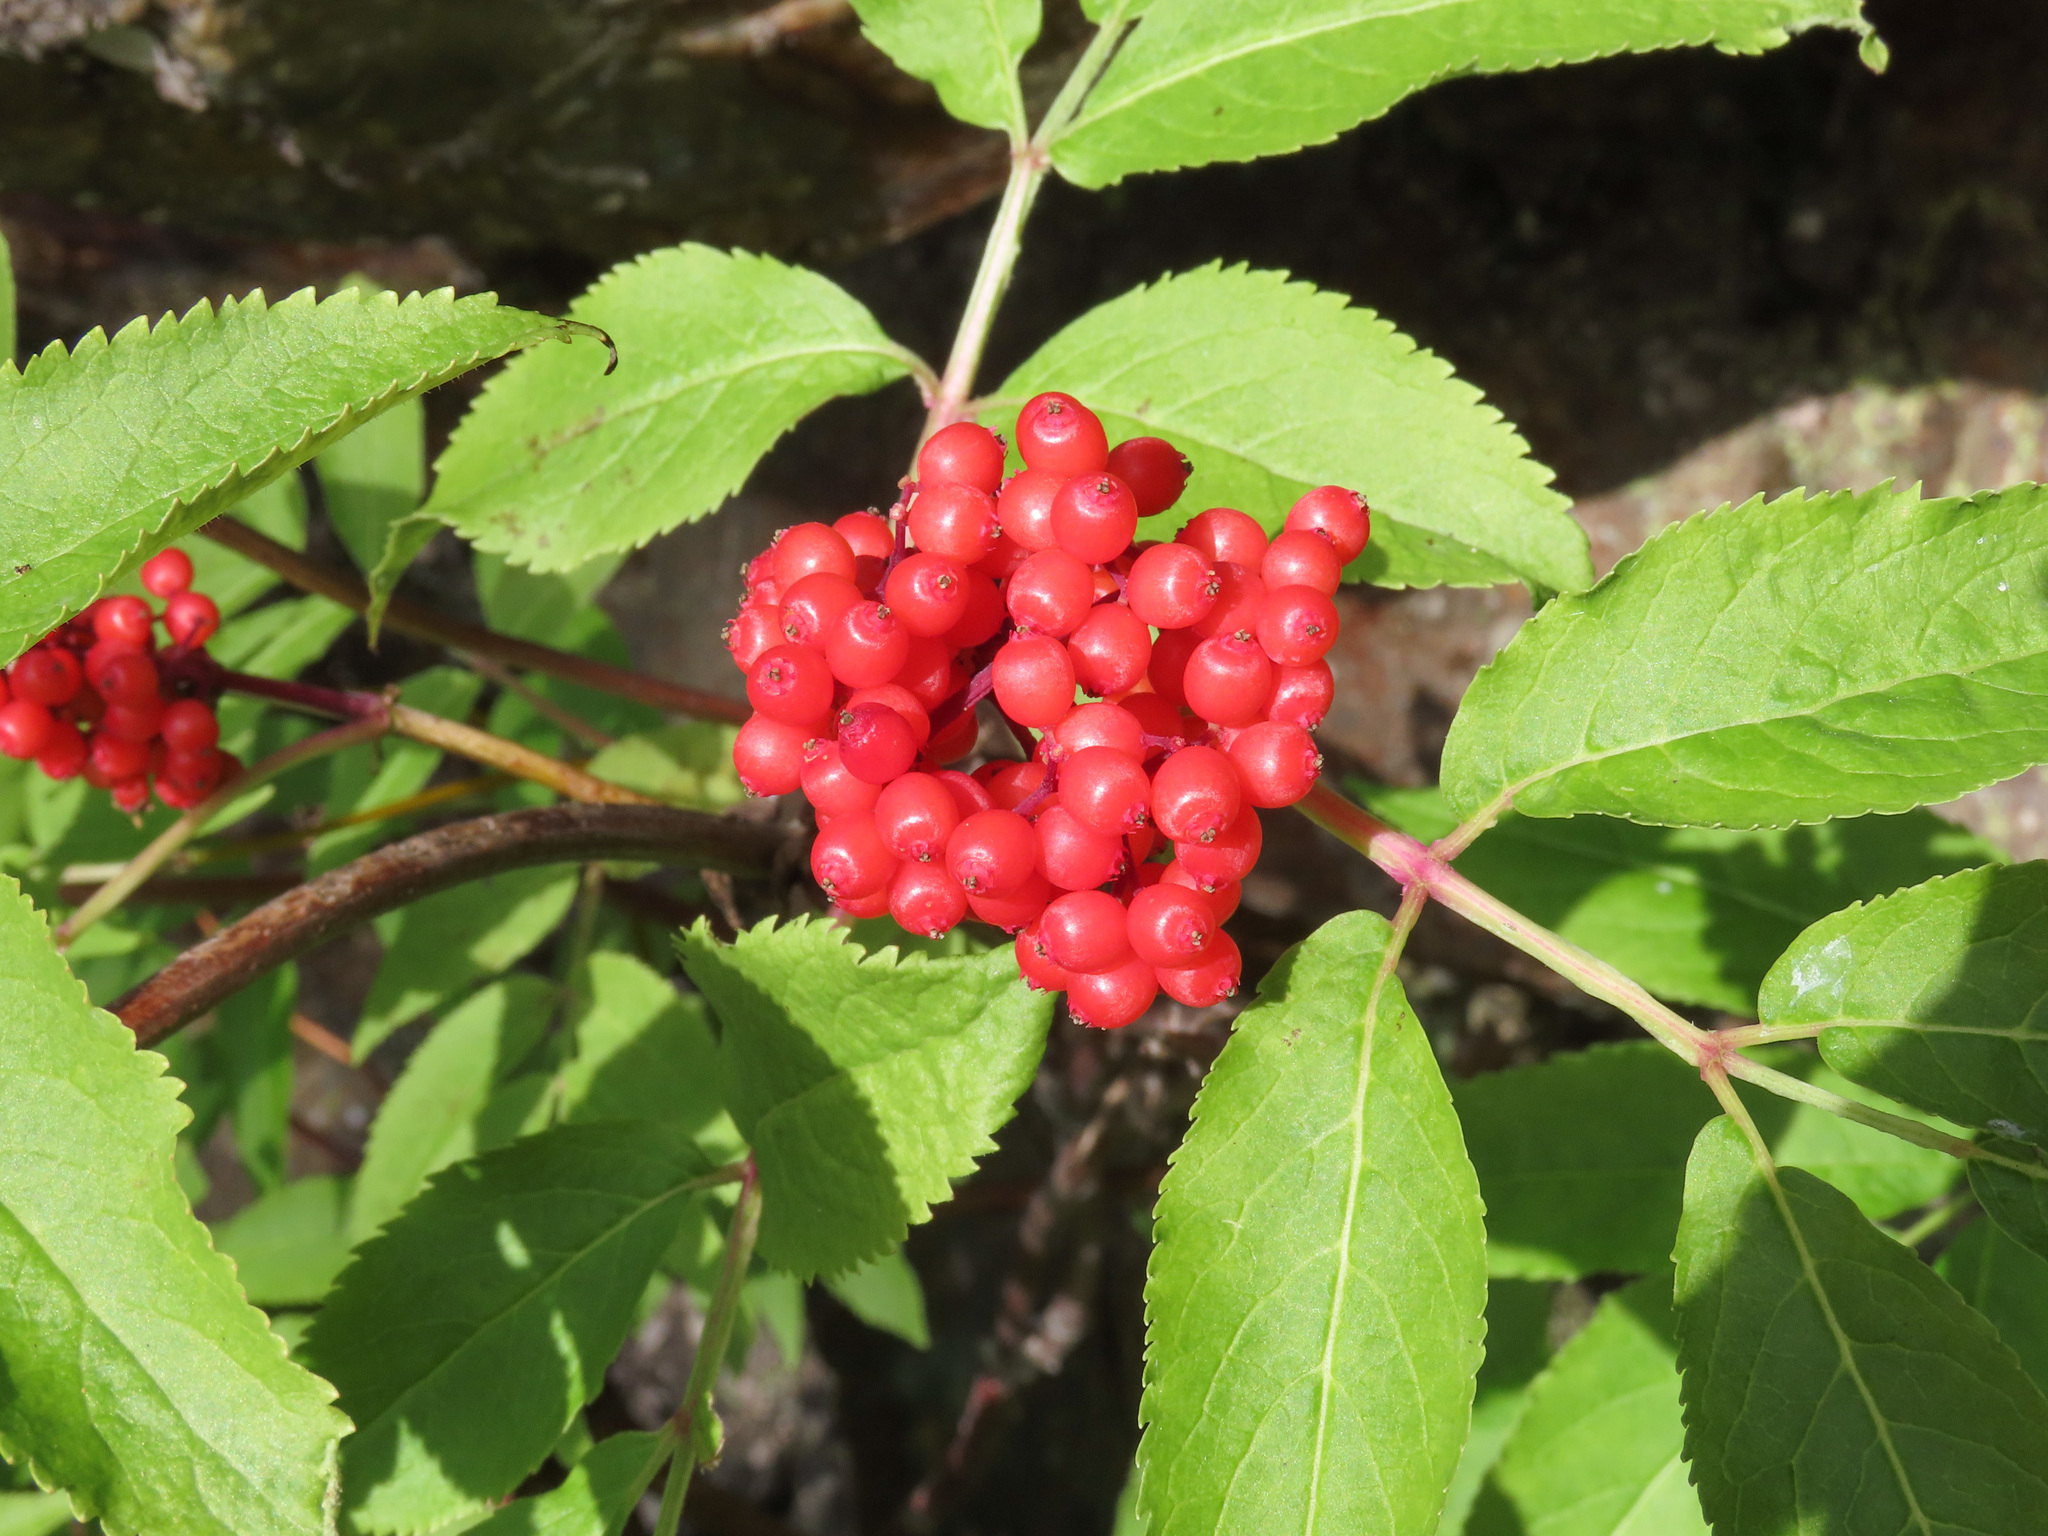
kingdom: Plantae
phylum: Tracheophyta
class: Magnoliopsida
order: Dipsacales
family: Viburnaceae
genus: Sambucus
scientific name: Sambucus racemosa
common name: Red-berried elder
